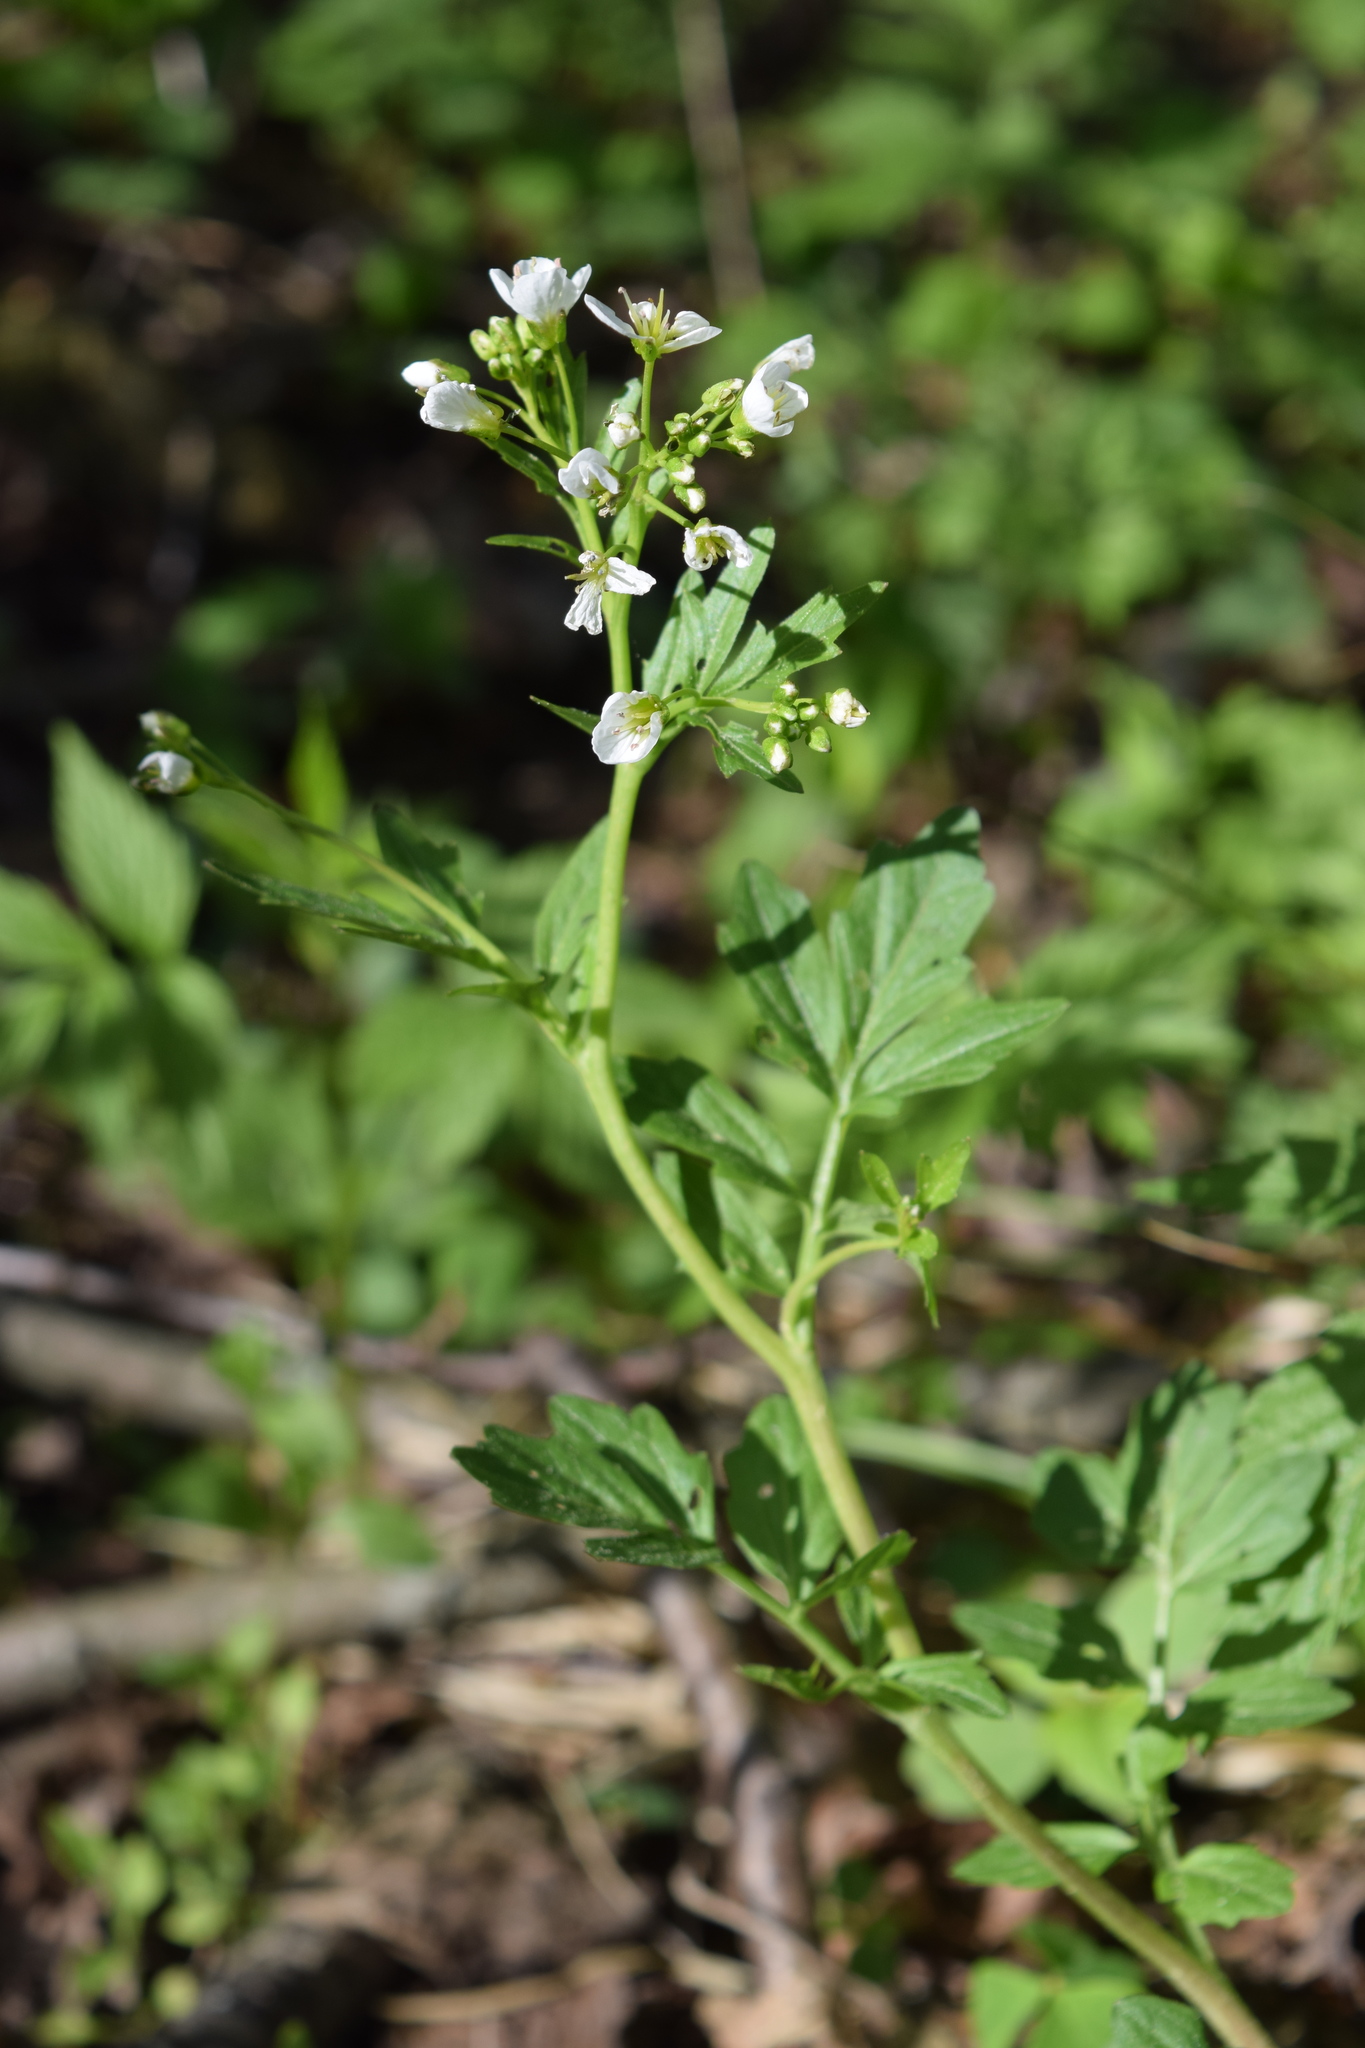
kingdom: Plantae
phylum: Tracheophyta
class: Magnoliopsida
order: Brassicales
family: Brassicaceae
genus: Cardamine
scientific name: Cardamine amara
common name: Large bitter-cress
